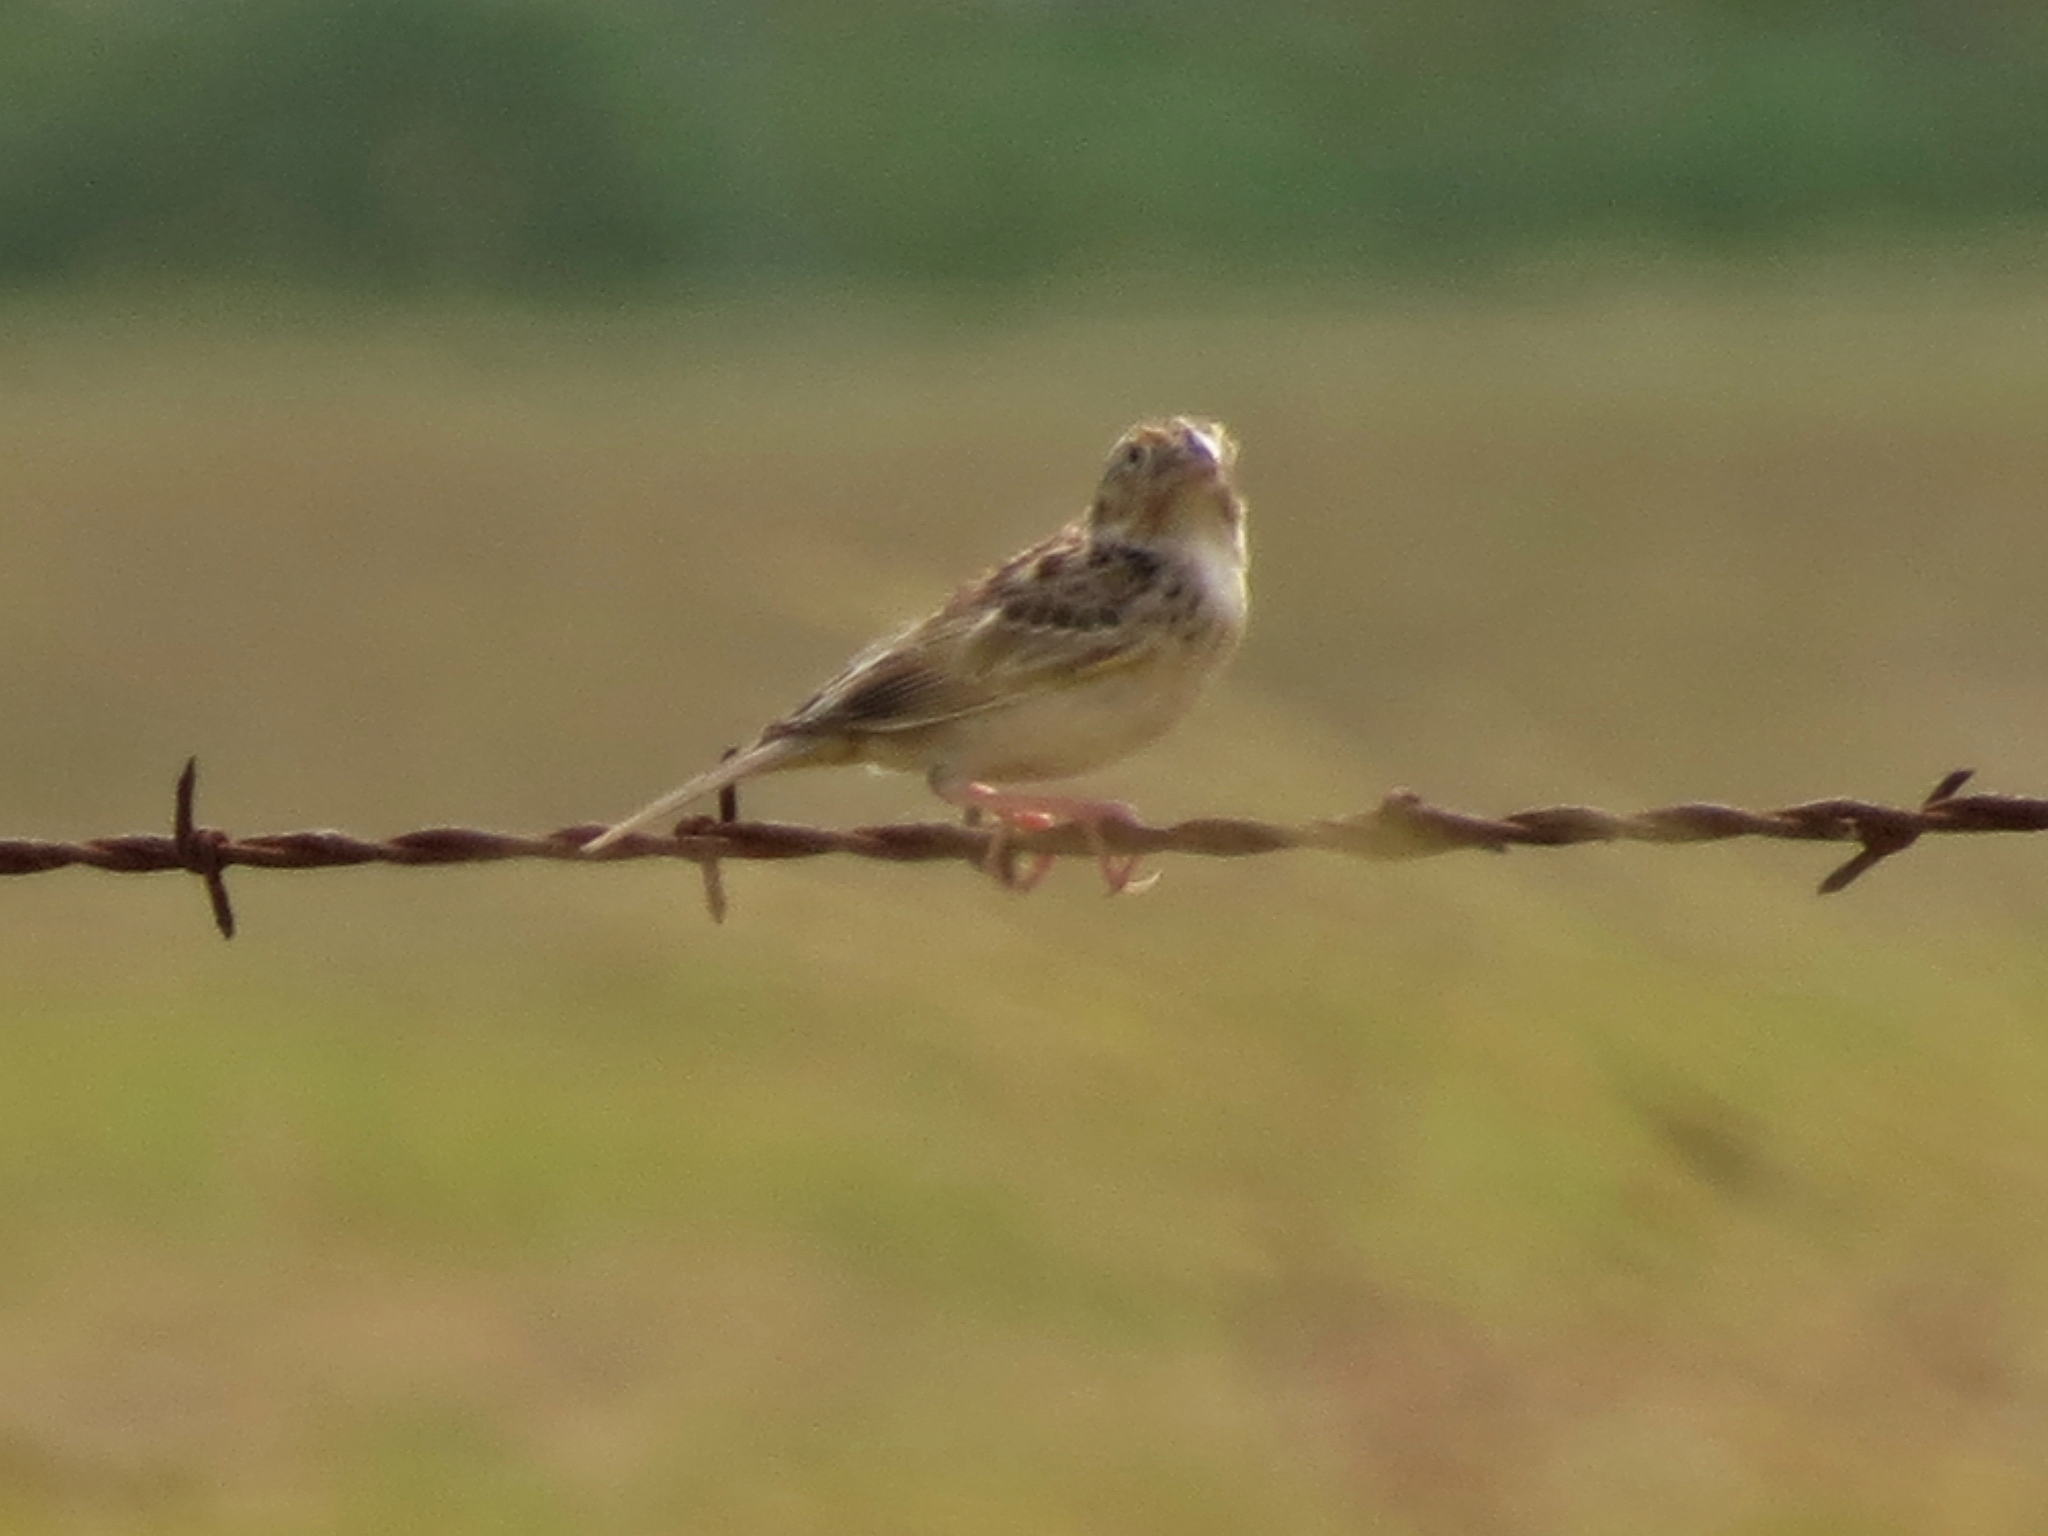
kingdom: Animalia
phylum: Chordata
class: Aves
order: Passeriformes
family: Passerellidae
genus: Ammodramus
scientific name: Ammodramus savannarum
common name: Grasshopper sparrow
